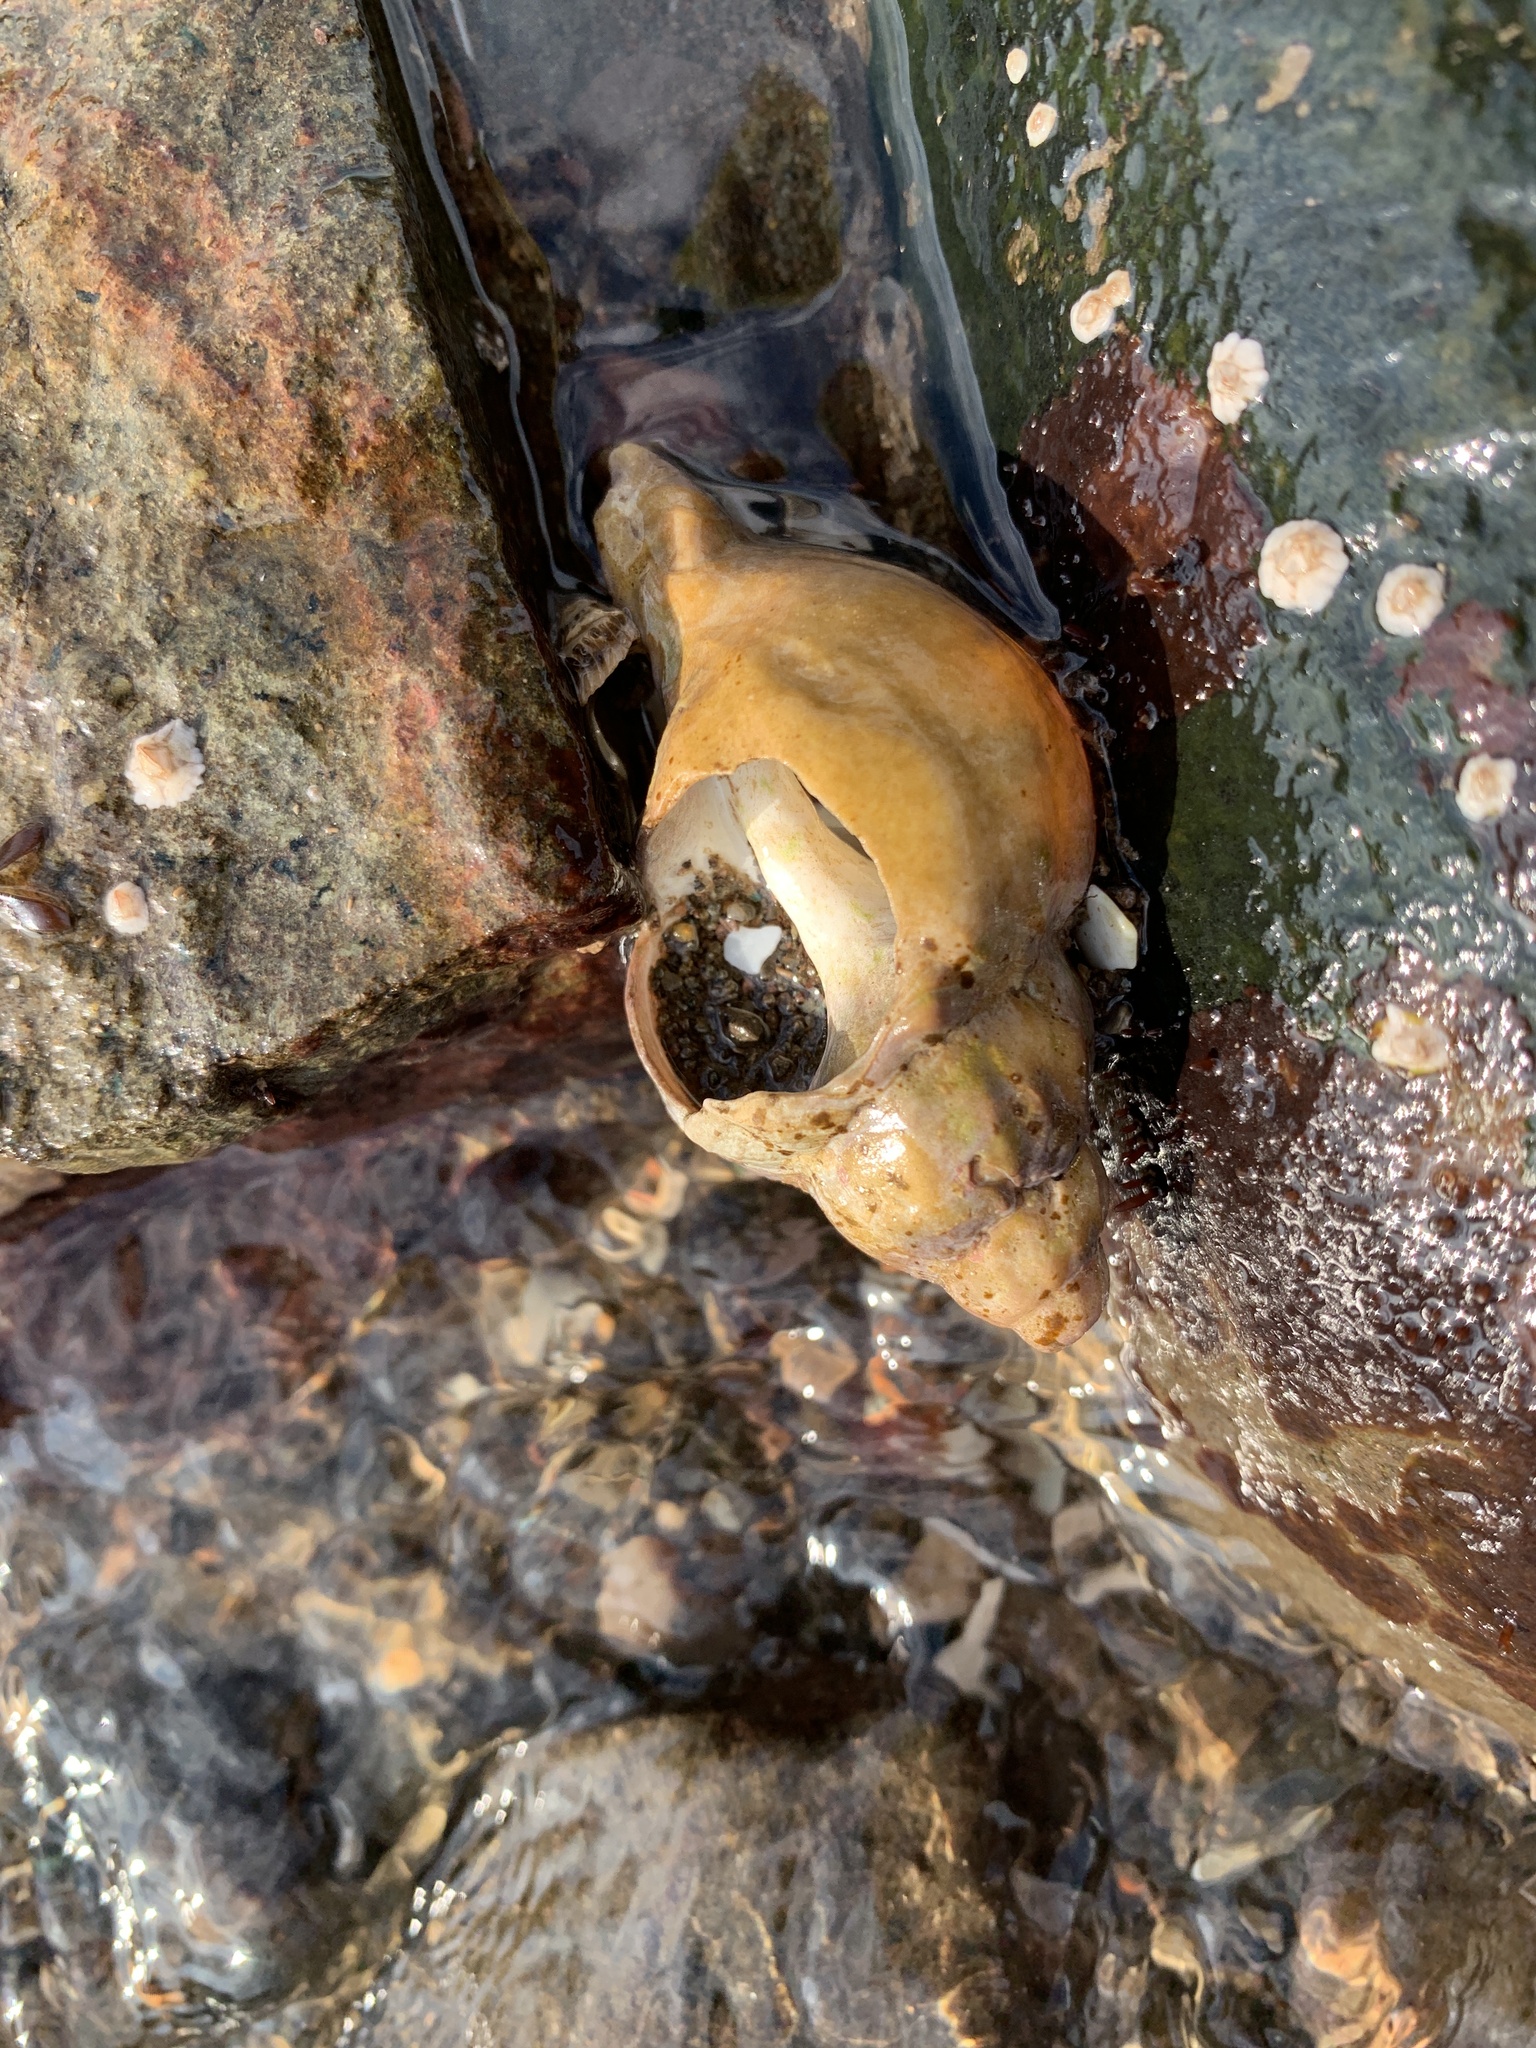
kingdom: Animalia
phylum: Mollusca
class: Gastropoda
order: Neogastropoda
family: Buccinidae
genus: Buccinum
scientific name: Buccinum undatum
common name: Common whelk
